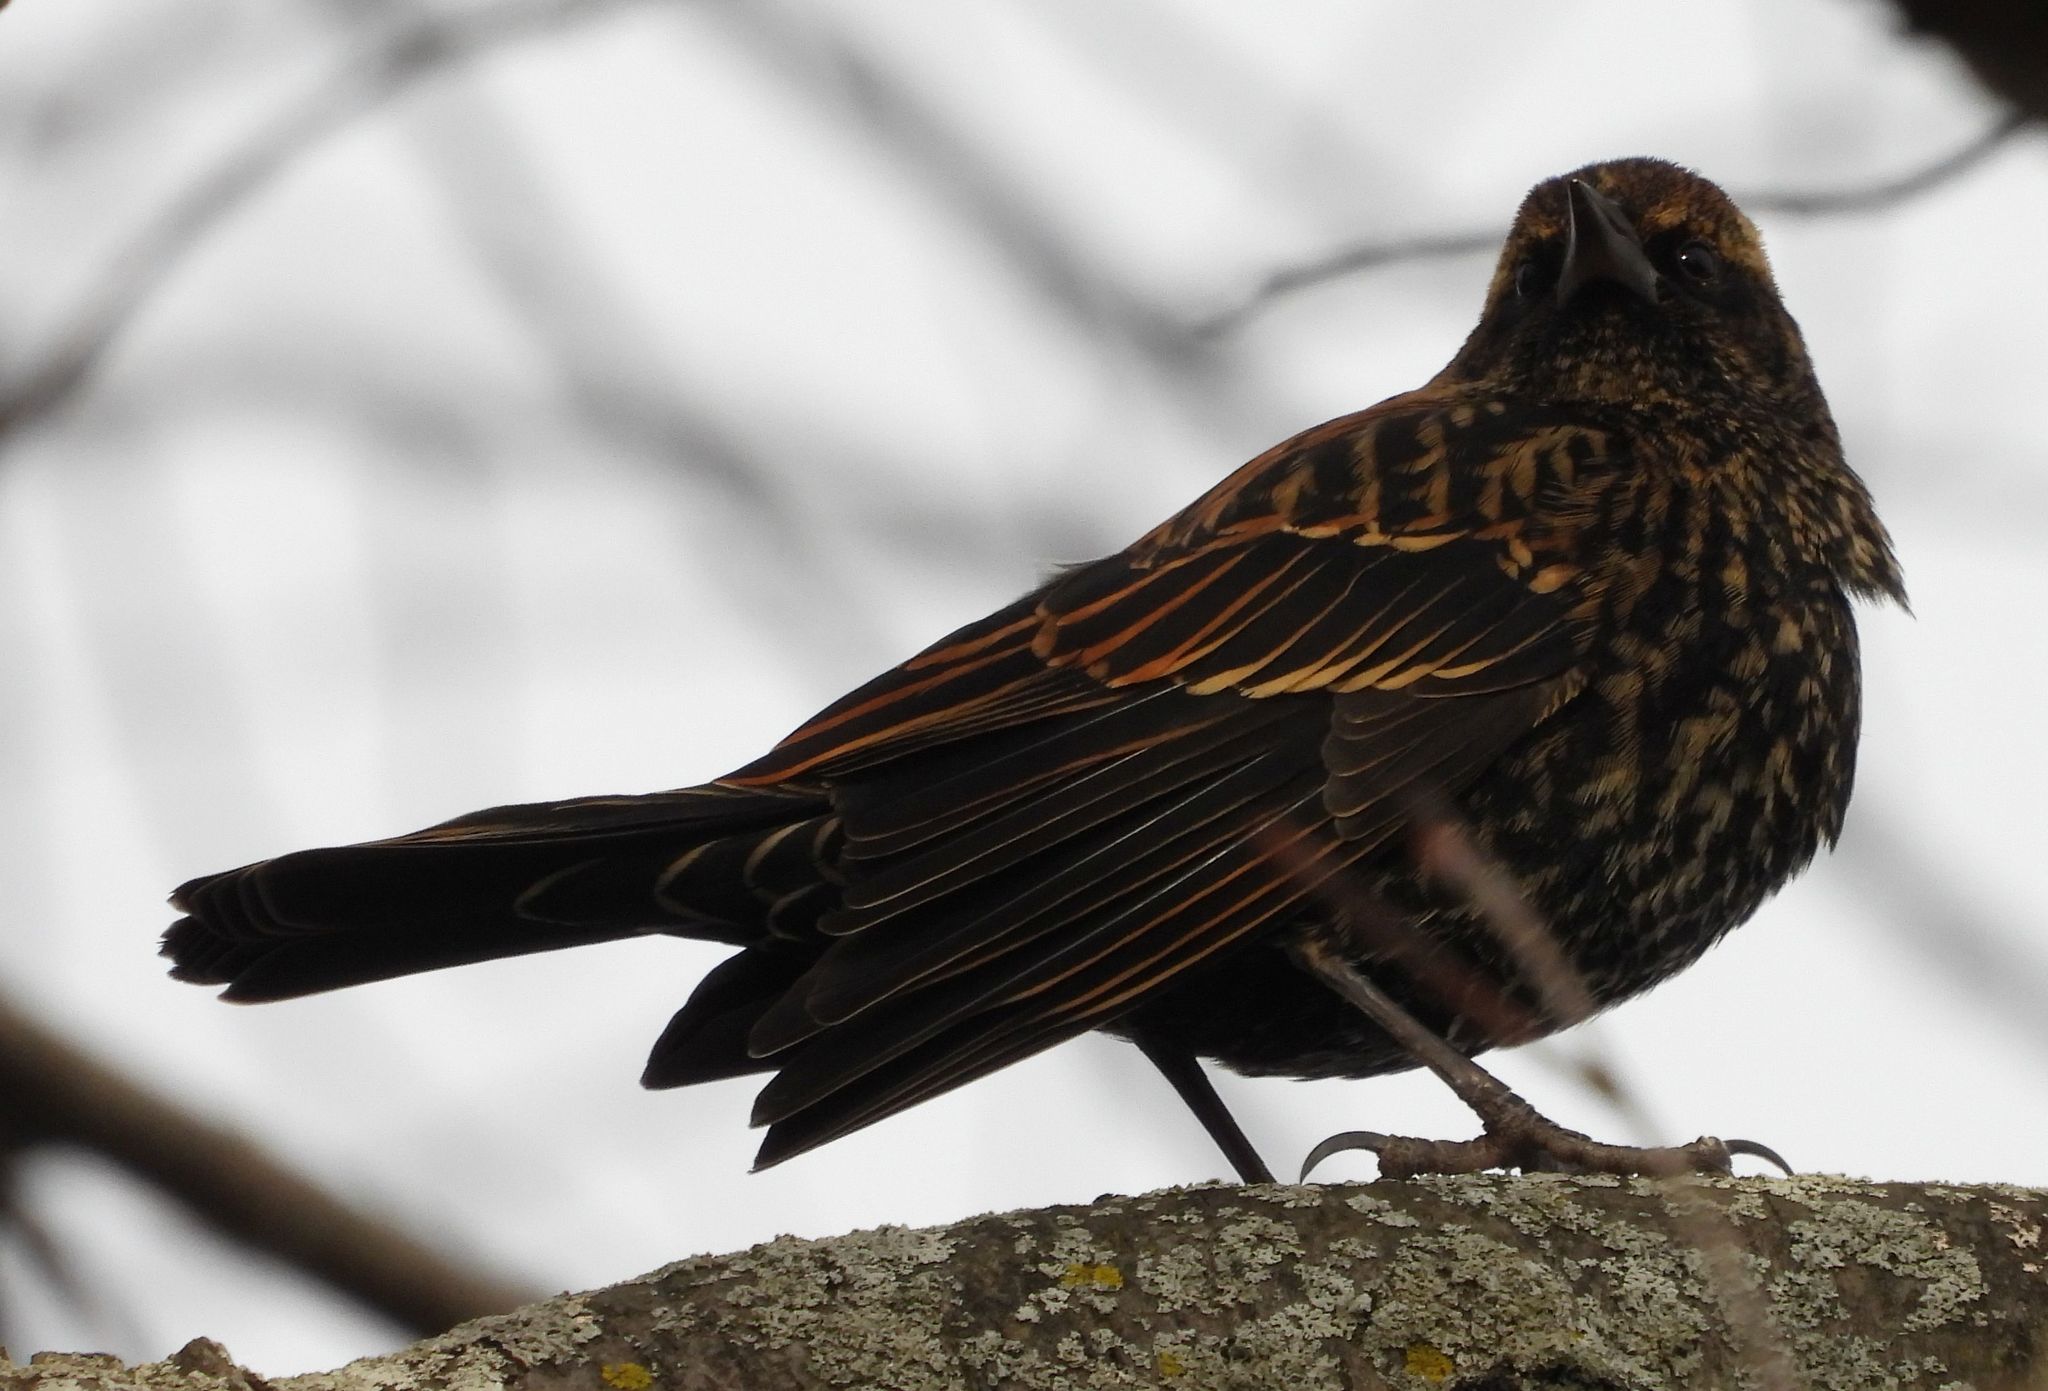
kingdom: Animalia
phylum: Chordata
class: Aves
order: Passeriformes
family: Icteridae
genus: Agelaius
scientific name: Agelaius phoeniceus
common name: Red-winged blackbird
